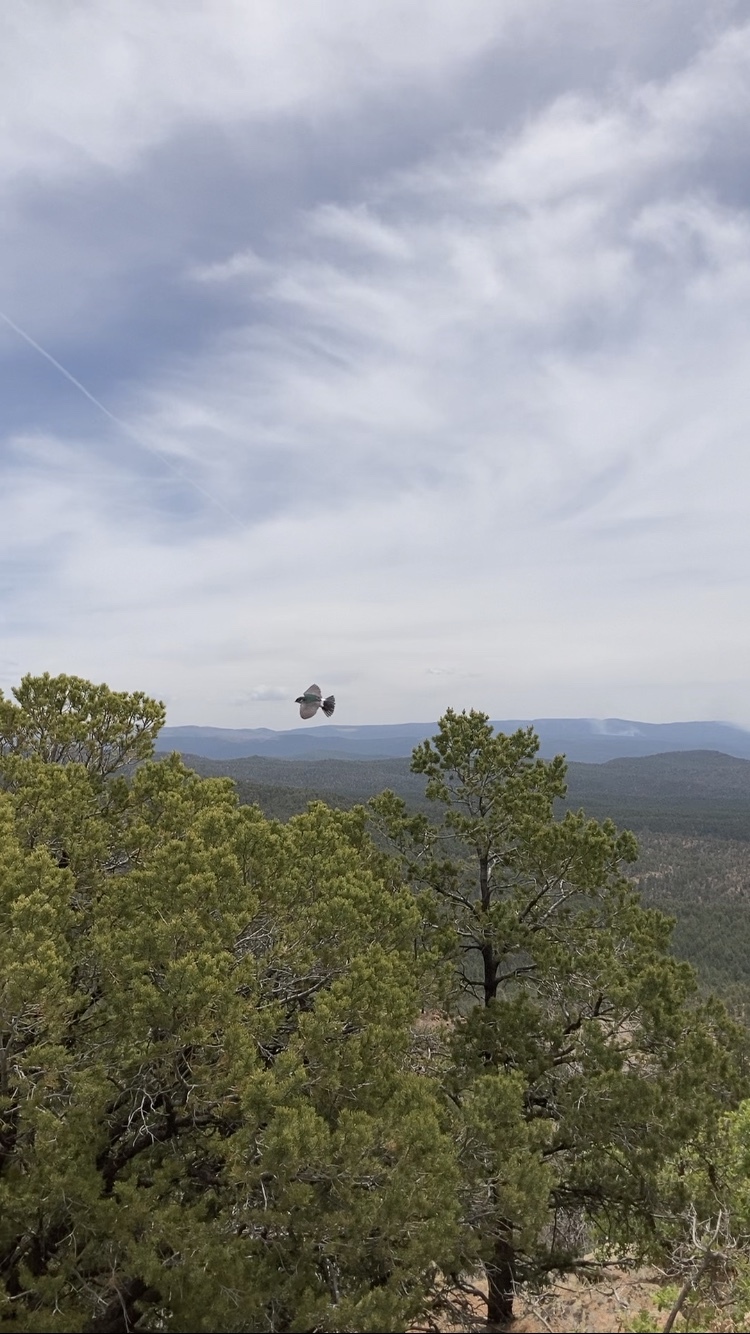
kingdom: Animalia
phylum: Chordata
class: Aves
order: Passeriformes
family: Hirundinidae
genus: Tachycineta
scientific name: Tachycineta thalassina
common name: Violet-green swallow
